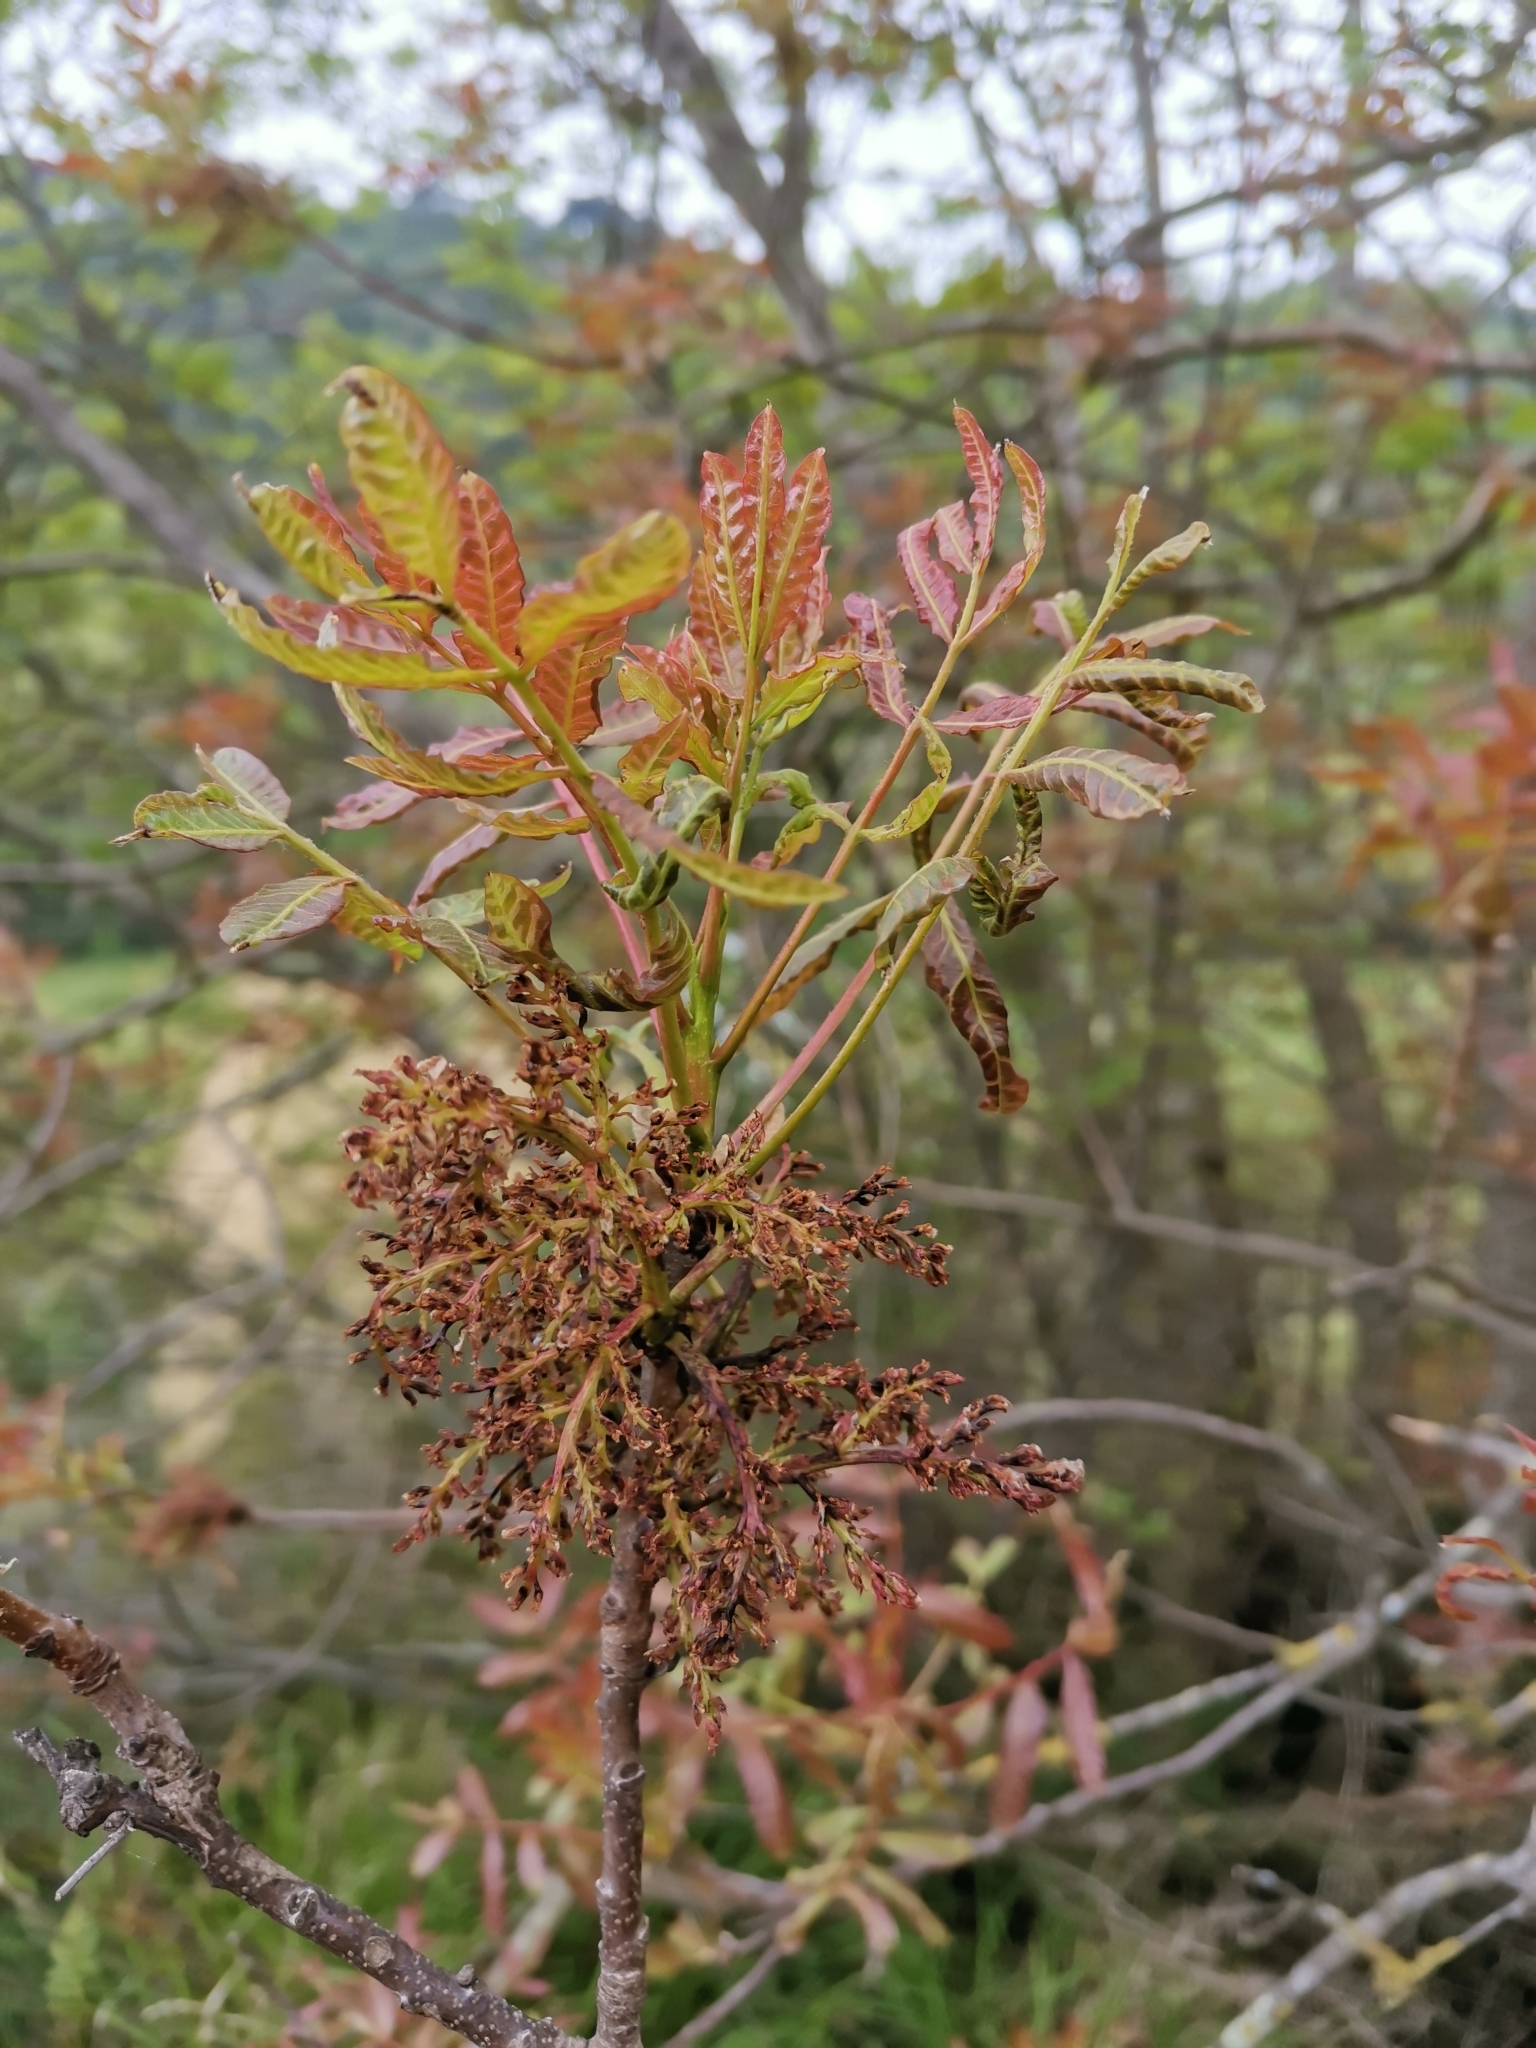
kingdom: Plantae
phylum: Tracheophyta
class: Magnoliopsida
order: Sapindales
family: Anacardiaceae
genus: Pistacia
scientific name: Pistacia terebinthus
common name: Terebinth
